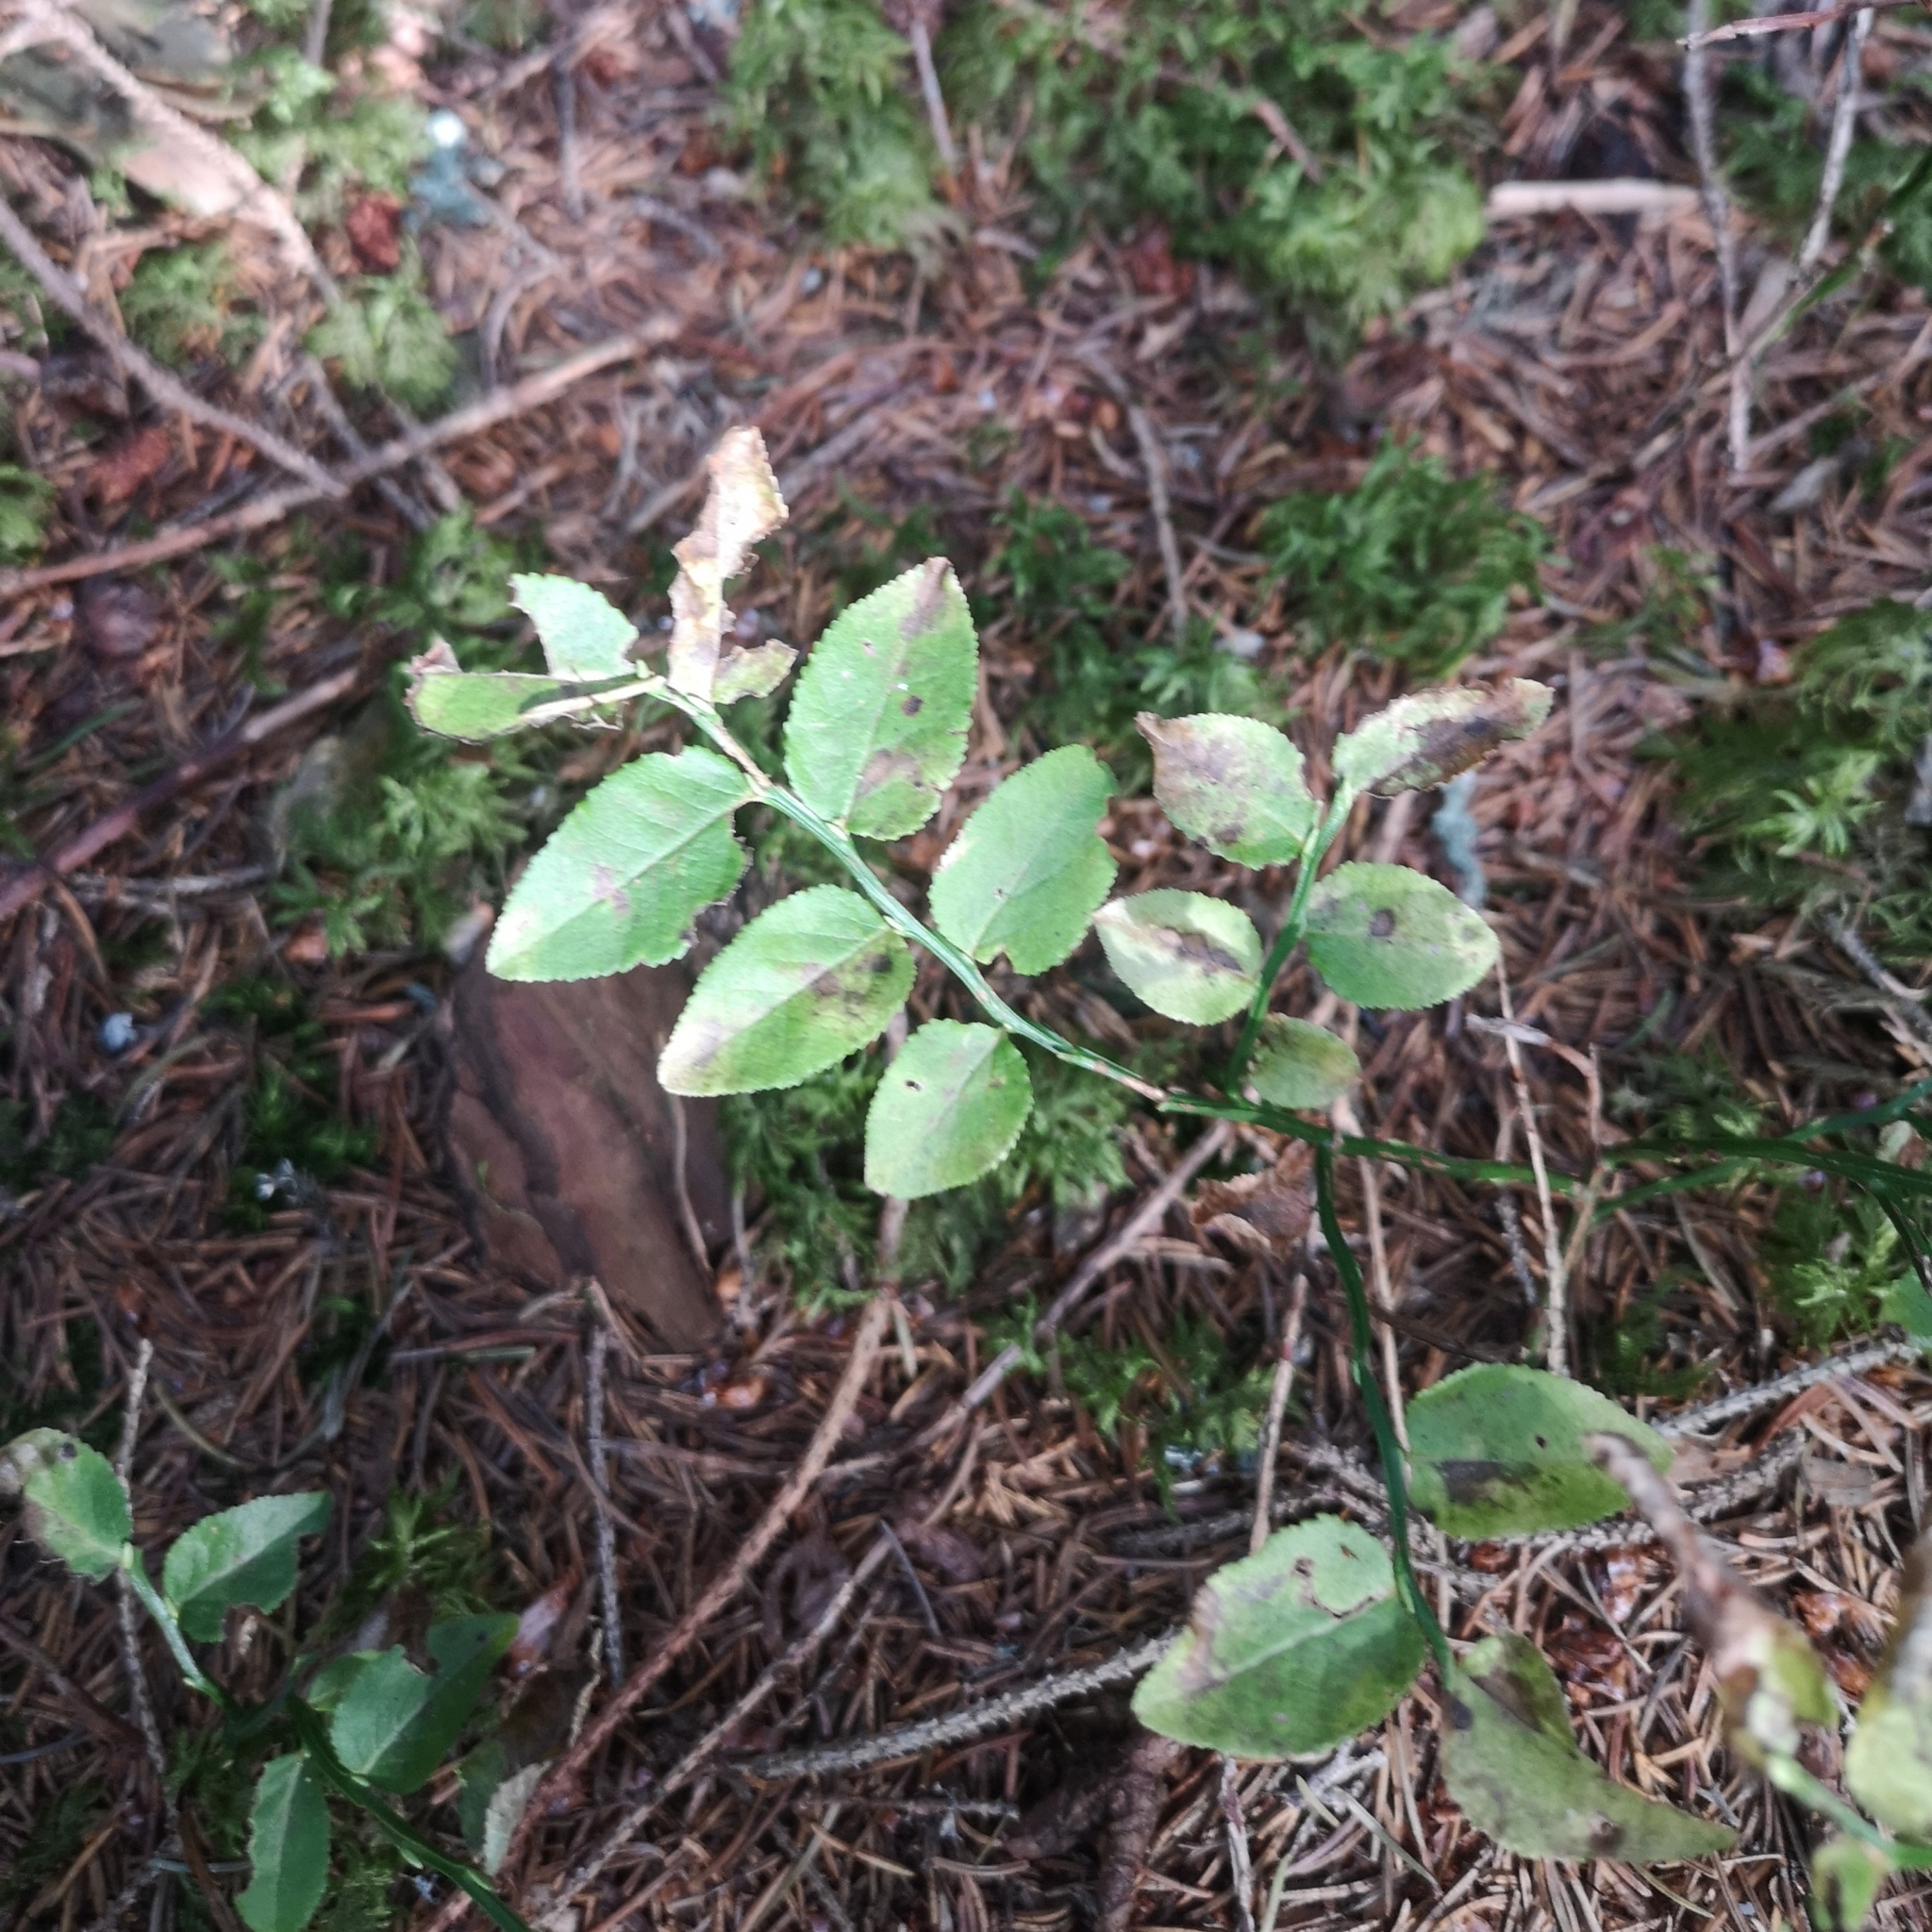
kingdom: Plantae
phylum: Tracheophyta
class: Magnoliopsida
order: Ericales
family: Ericaceae
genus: Vaccinium
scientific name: Vaccinium myrtillus
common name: Bilberry
